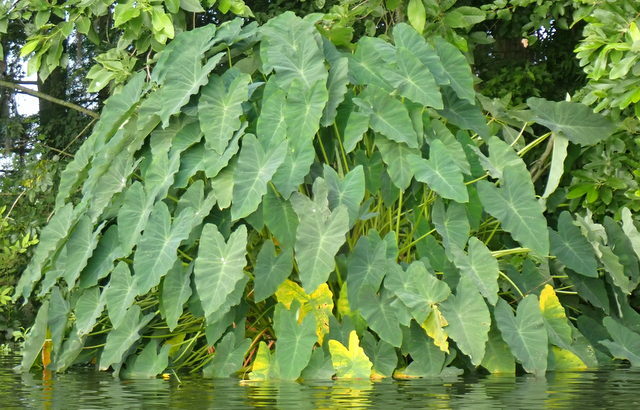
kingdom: Plantae
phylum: Tracheophyta
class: Liliopsida
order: Alismatales
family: Araceae
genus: Colocasia
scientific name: Colocasia esculenta
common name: Taro
